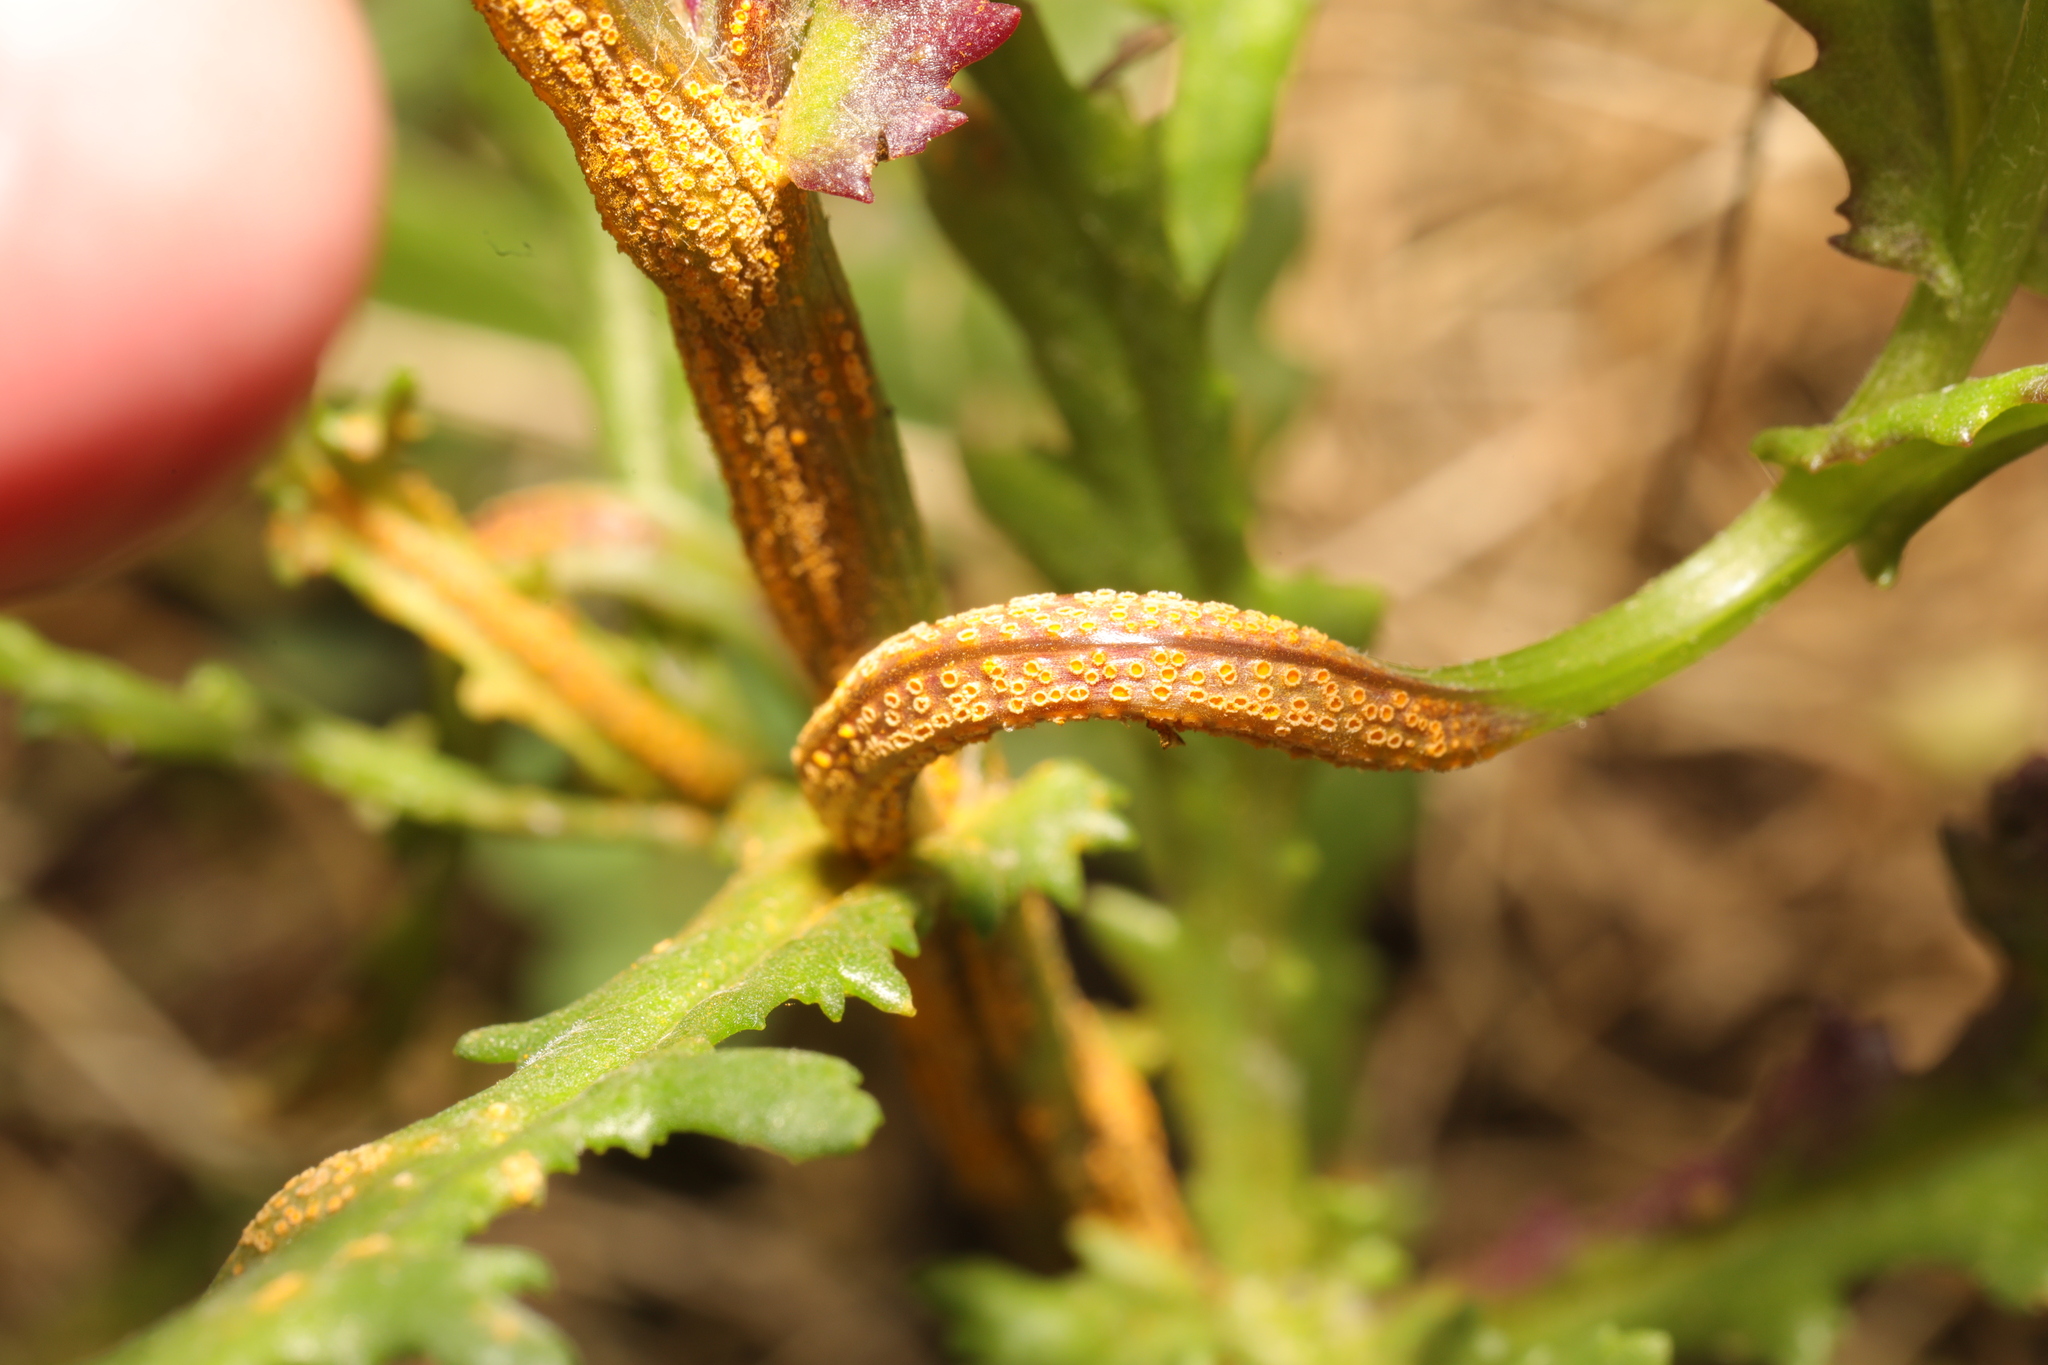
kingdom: Fungi
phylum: Basidiomycota
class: Pucciniomycetes
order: Pucciniales
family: Pucciniaceae
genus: Puccinia
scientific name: Puccinia lagenophorae
